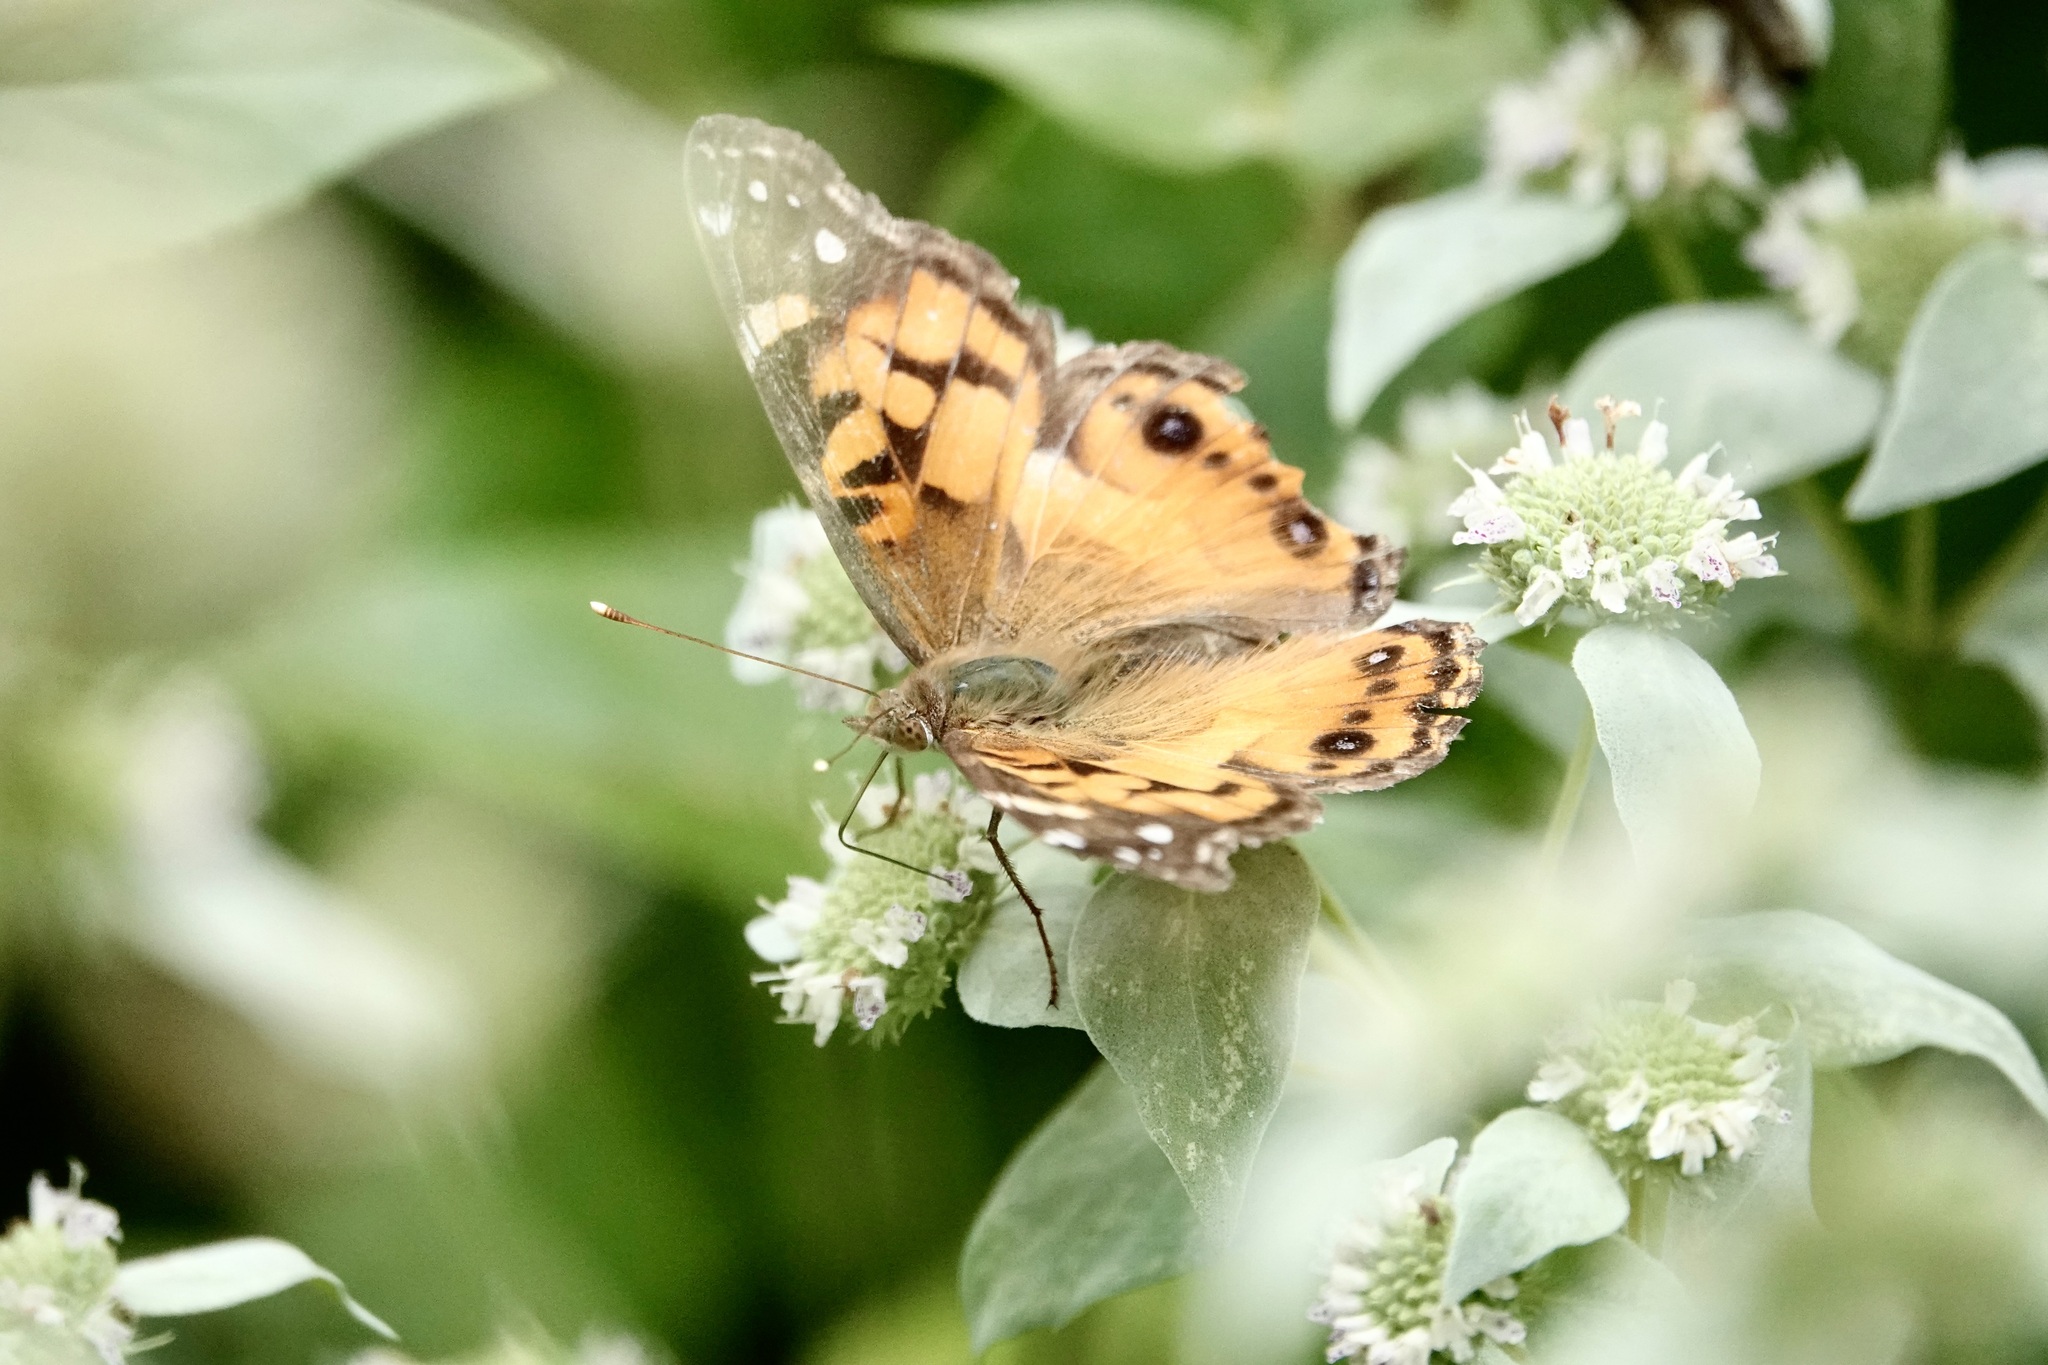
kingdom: Animalia
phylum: Arthropoda
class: Insecta
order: Lepidoptera
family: Nymphalidae
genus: Vanessa
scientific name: Vanessa virginiensis
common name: American lady
